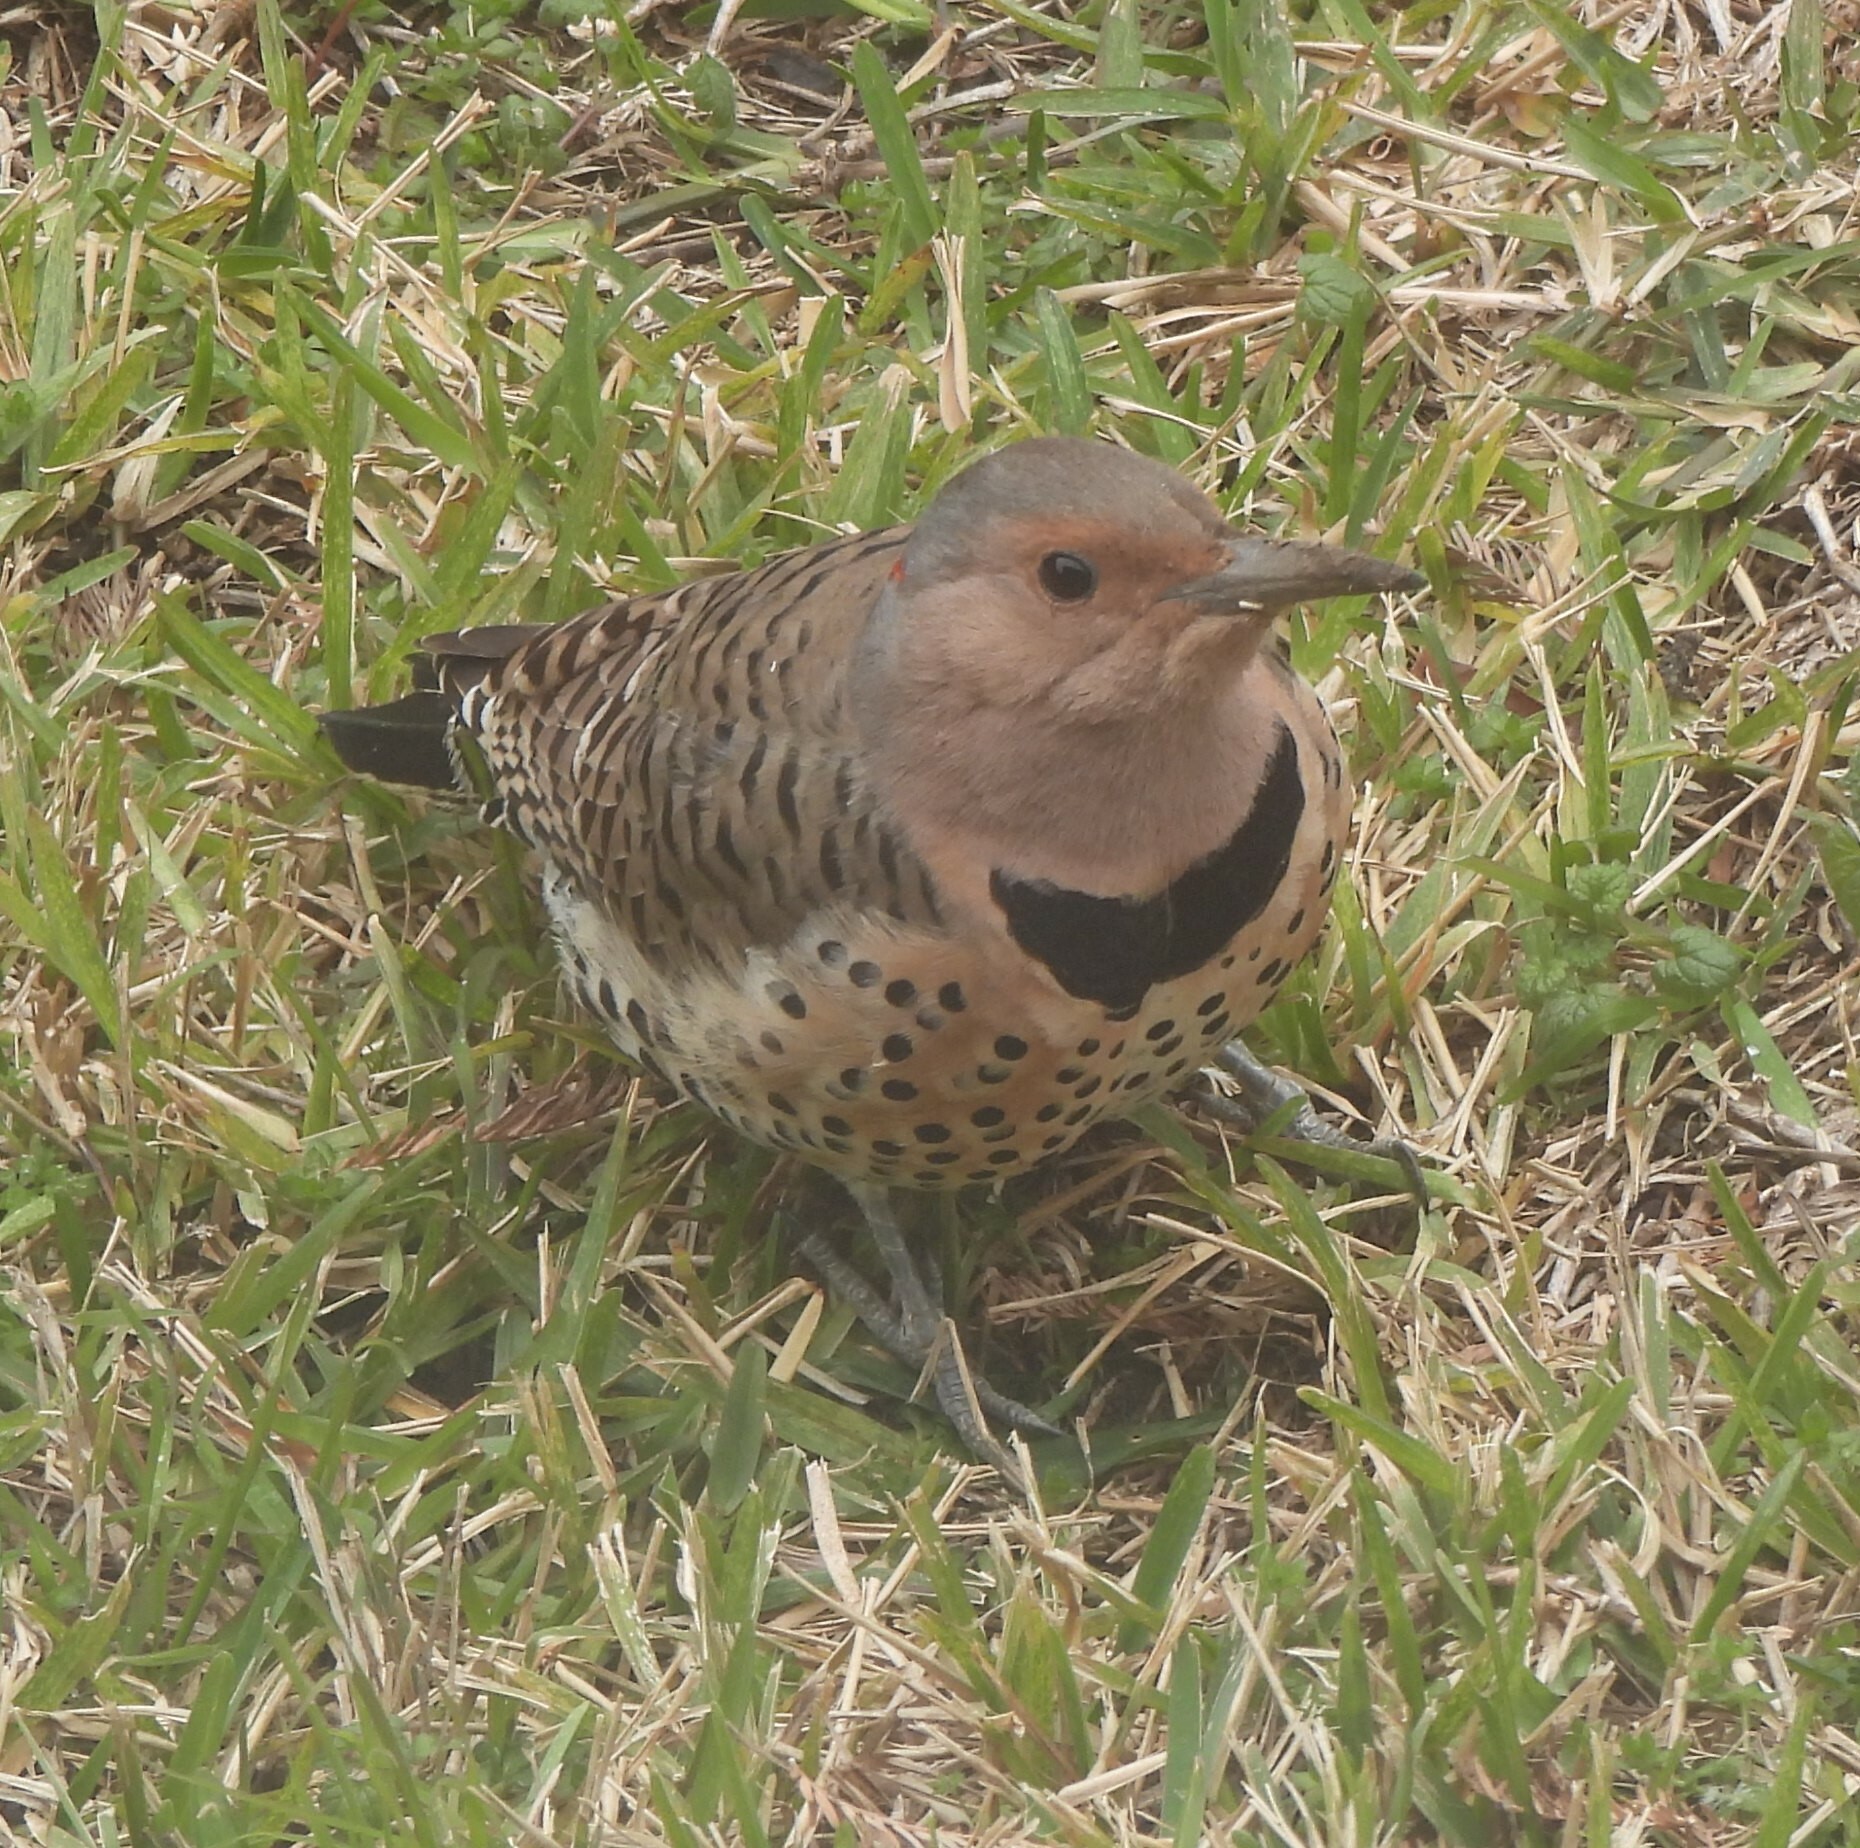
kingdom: Animalia
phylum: Chordata
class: Aves
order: Piciformes
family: Picidae
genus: Colaptes
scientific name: Colaptes auratus
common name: Northern flicker
